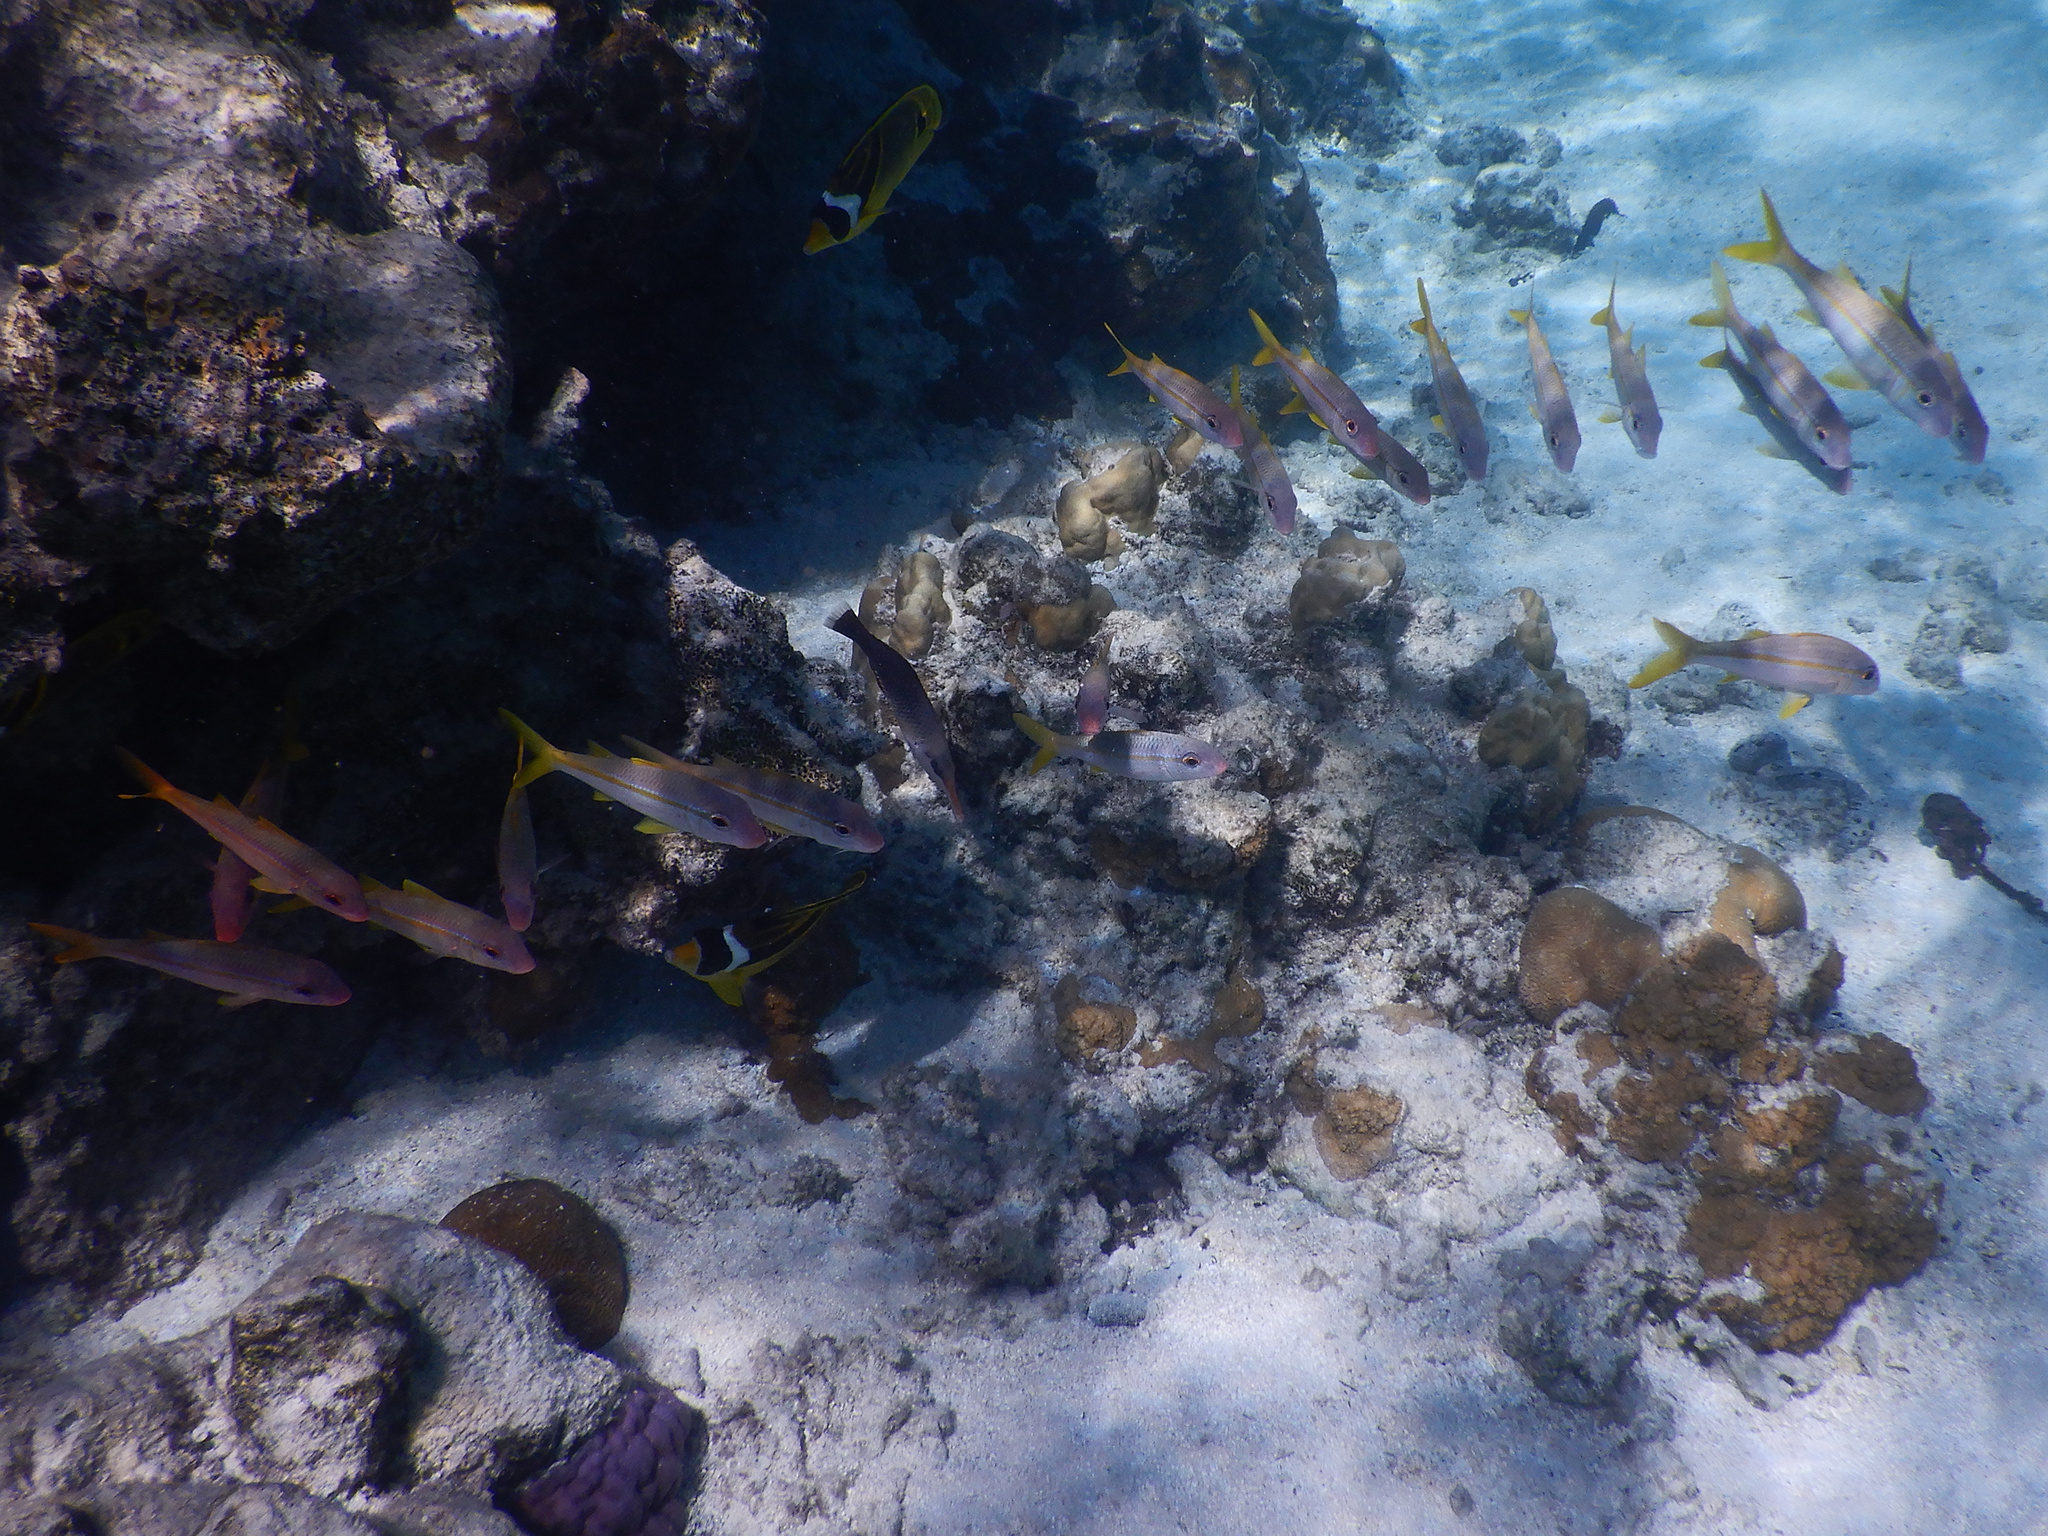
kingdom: Animalia
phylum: Chordata
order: Perciformes
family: Mullidae
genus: Mulloidichthys
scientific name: Mulloidichthys vanicolensis
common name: Yellowfin goatfish
